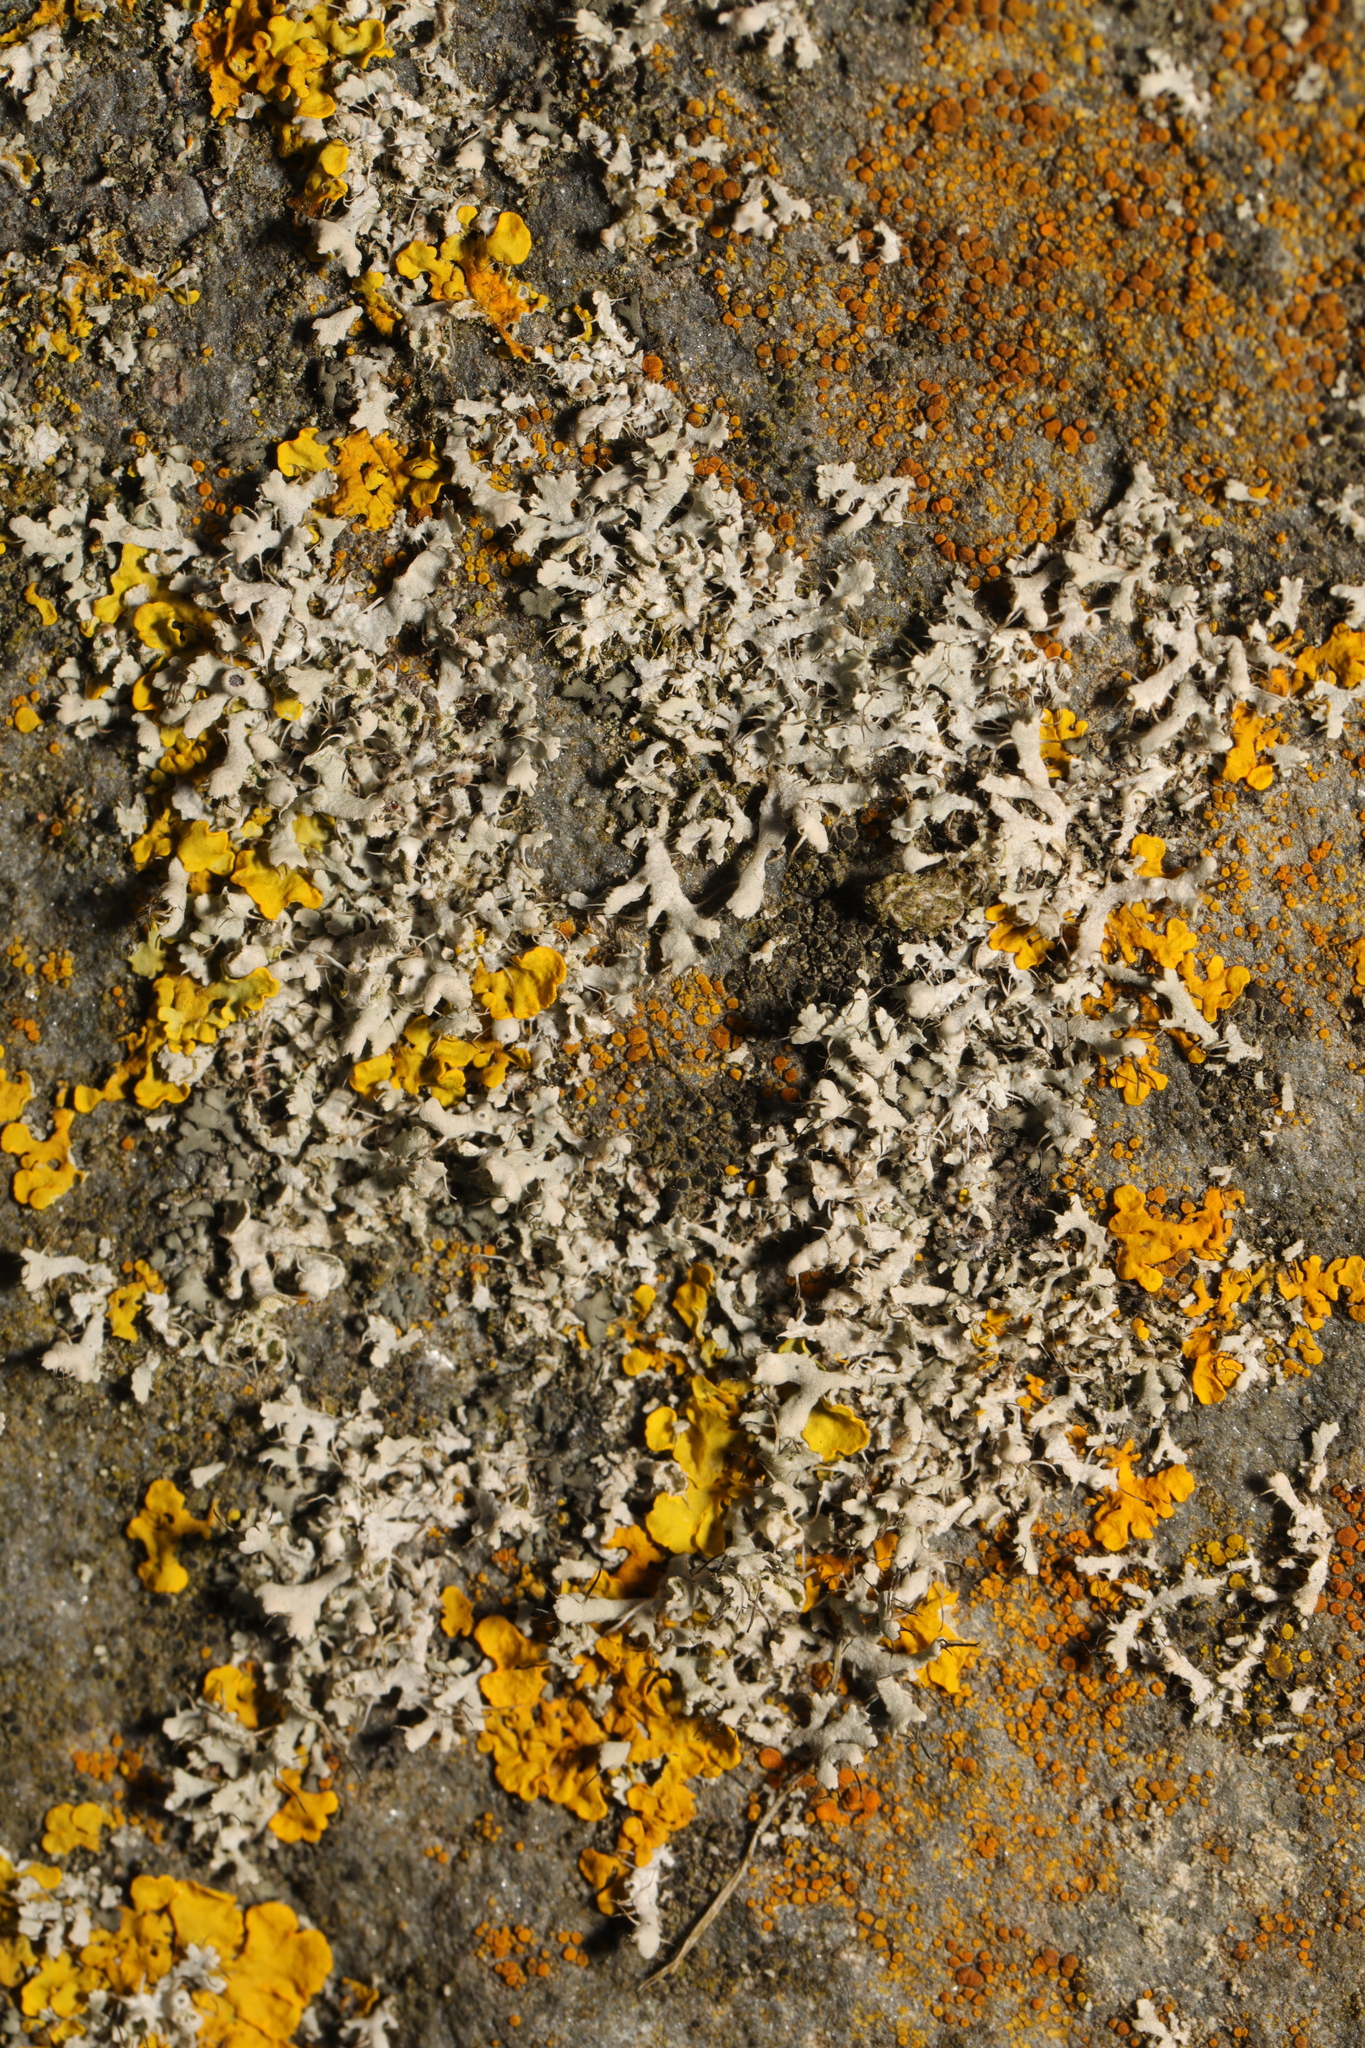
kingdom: Fungi
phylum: Ascomycota
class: Lecanoromycetes
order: Caliciales
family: Physciaceae
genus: Physcia
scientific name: Physcia adscendens
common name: Hooded rosette lichen
